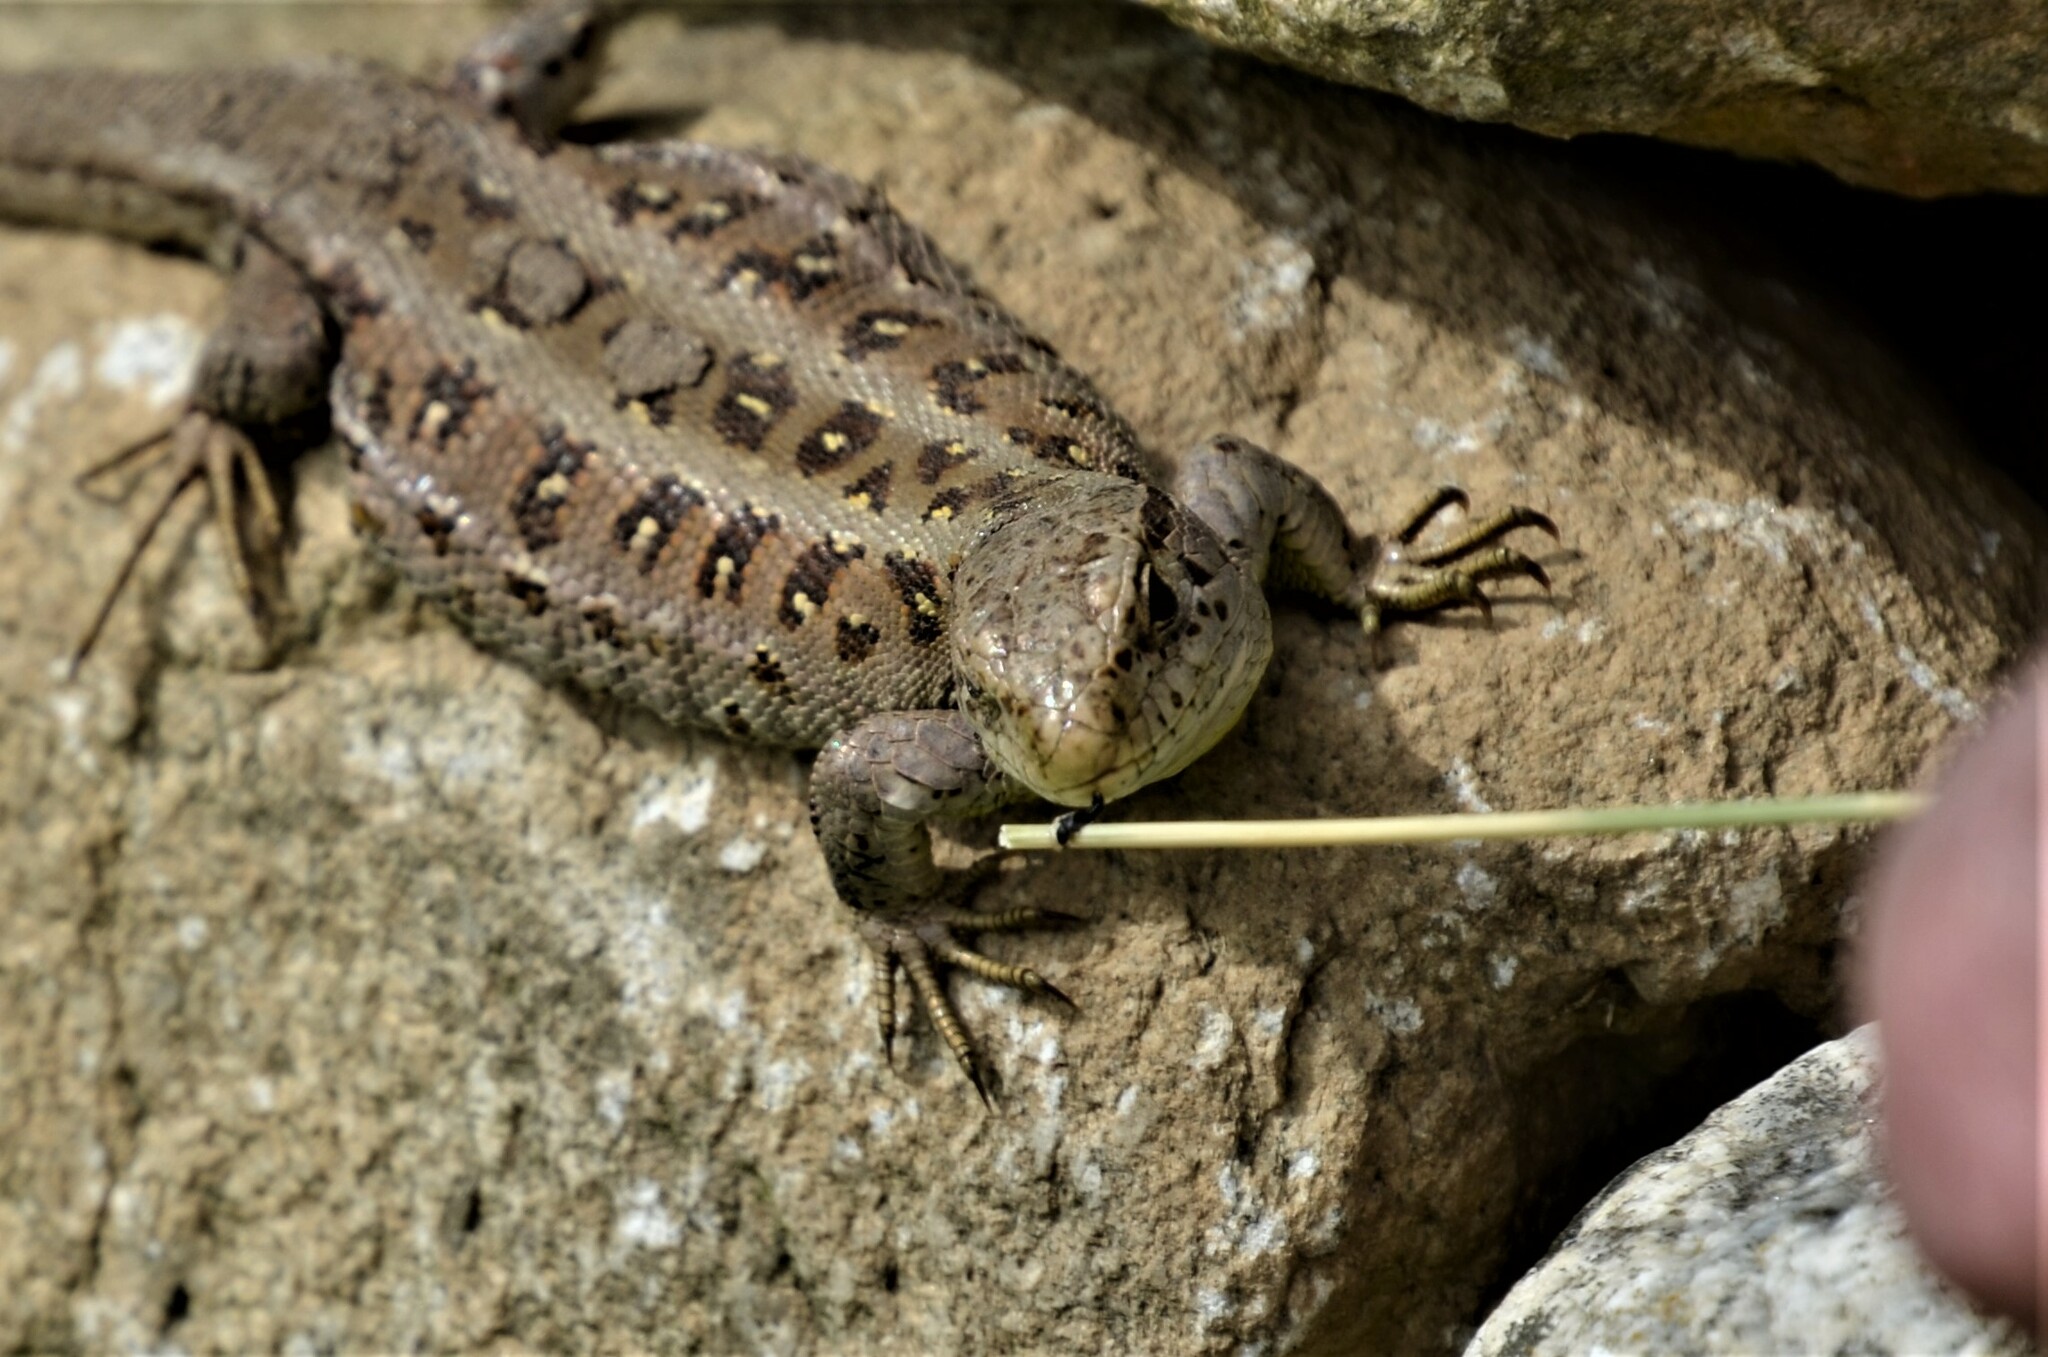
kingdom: Animalia
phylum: Chordata
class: Squamata
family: Lacertidae
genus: Lacerta
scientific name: Lacerta agilis
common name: Sand lizard
